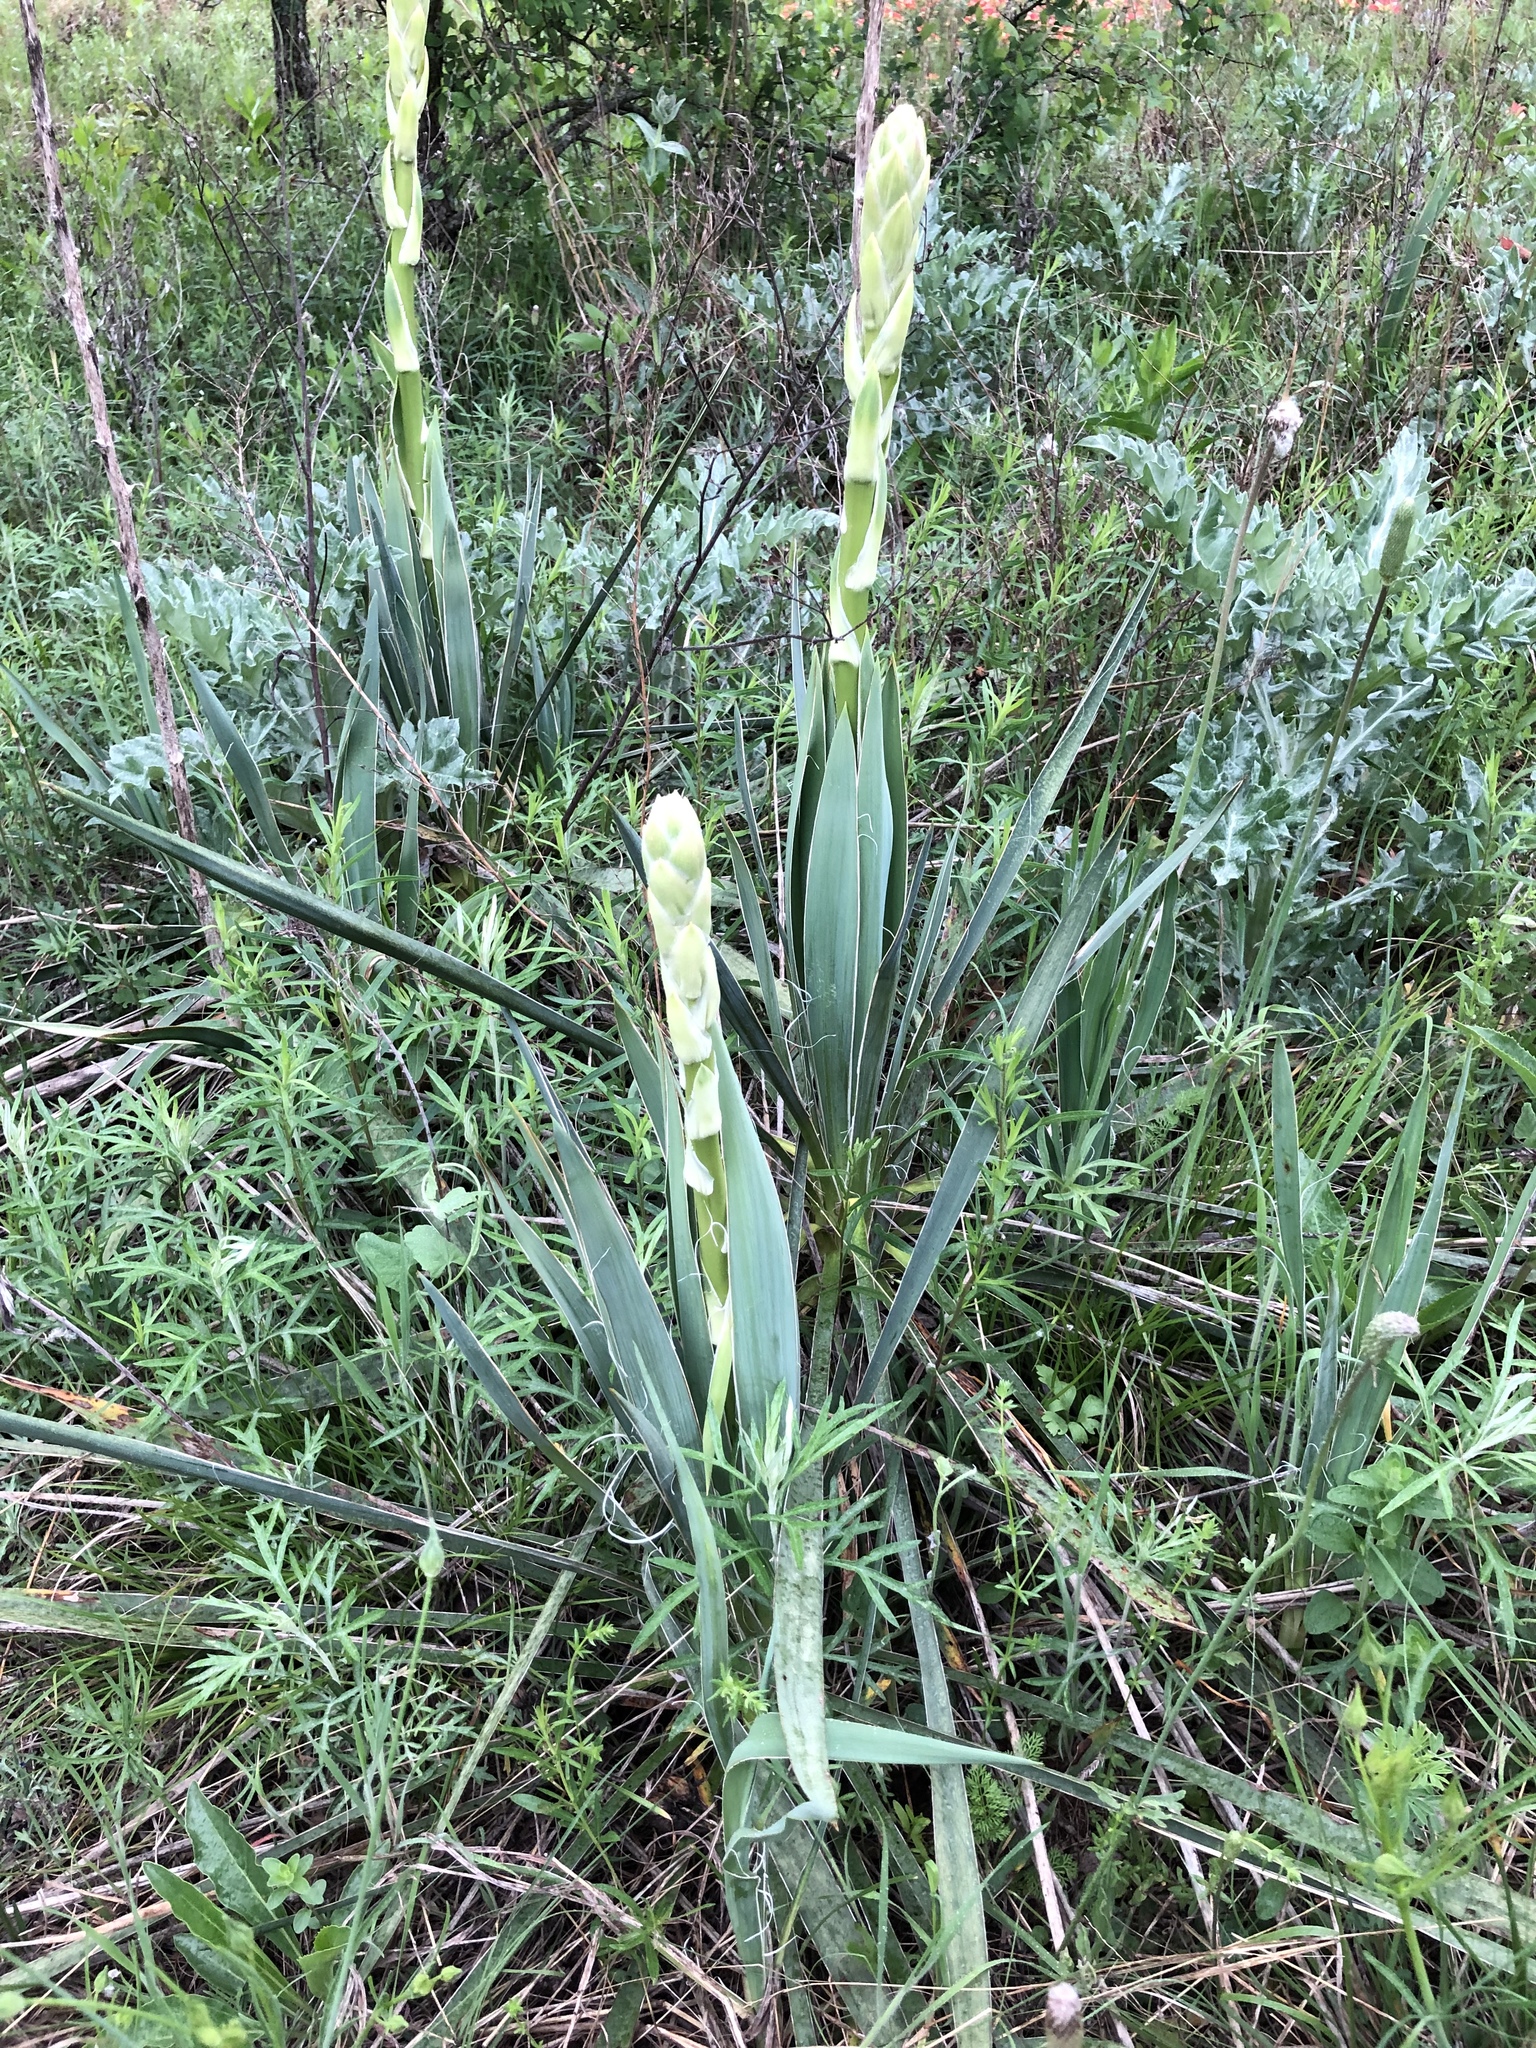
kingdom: Plantae
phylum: Tracheophyta
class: Liliopsida
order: Asparagales
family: Asparagaceae
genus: Yucca
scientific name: Yucca arkansana
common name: Arkansas yucca
